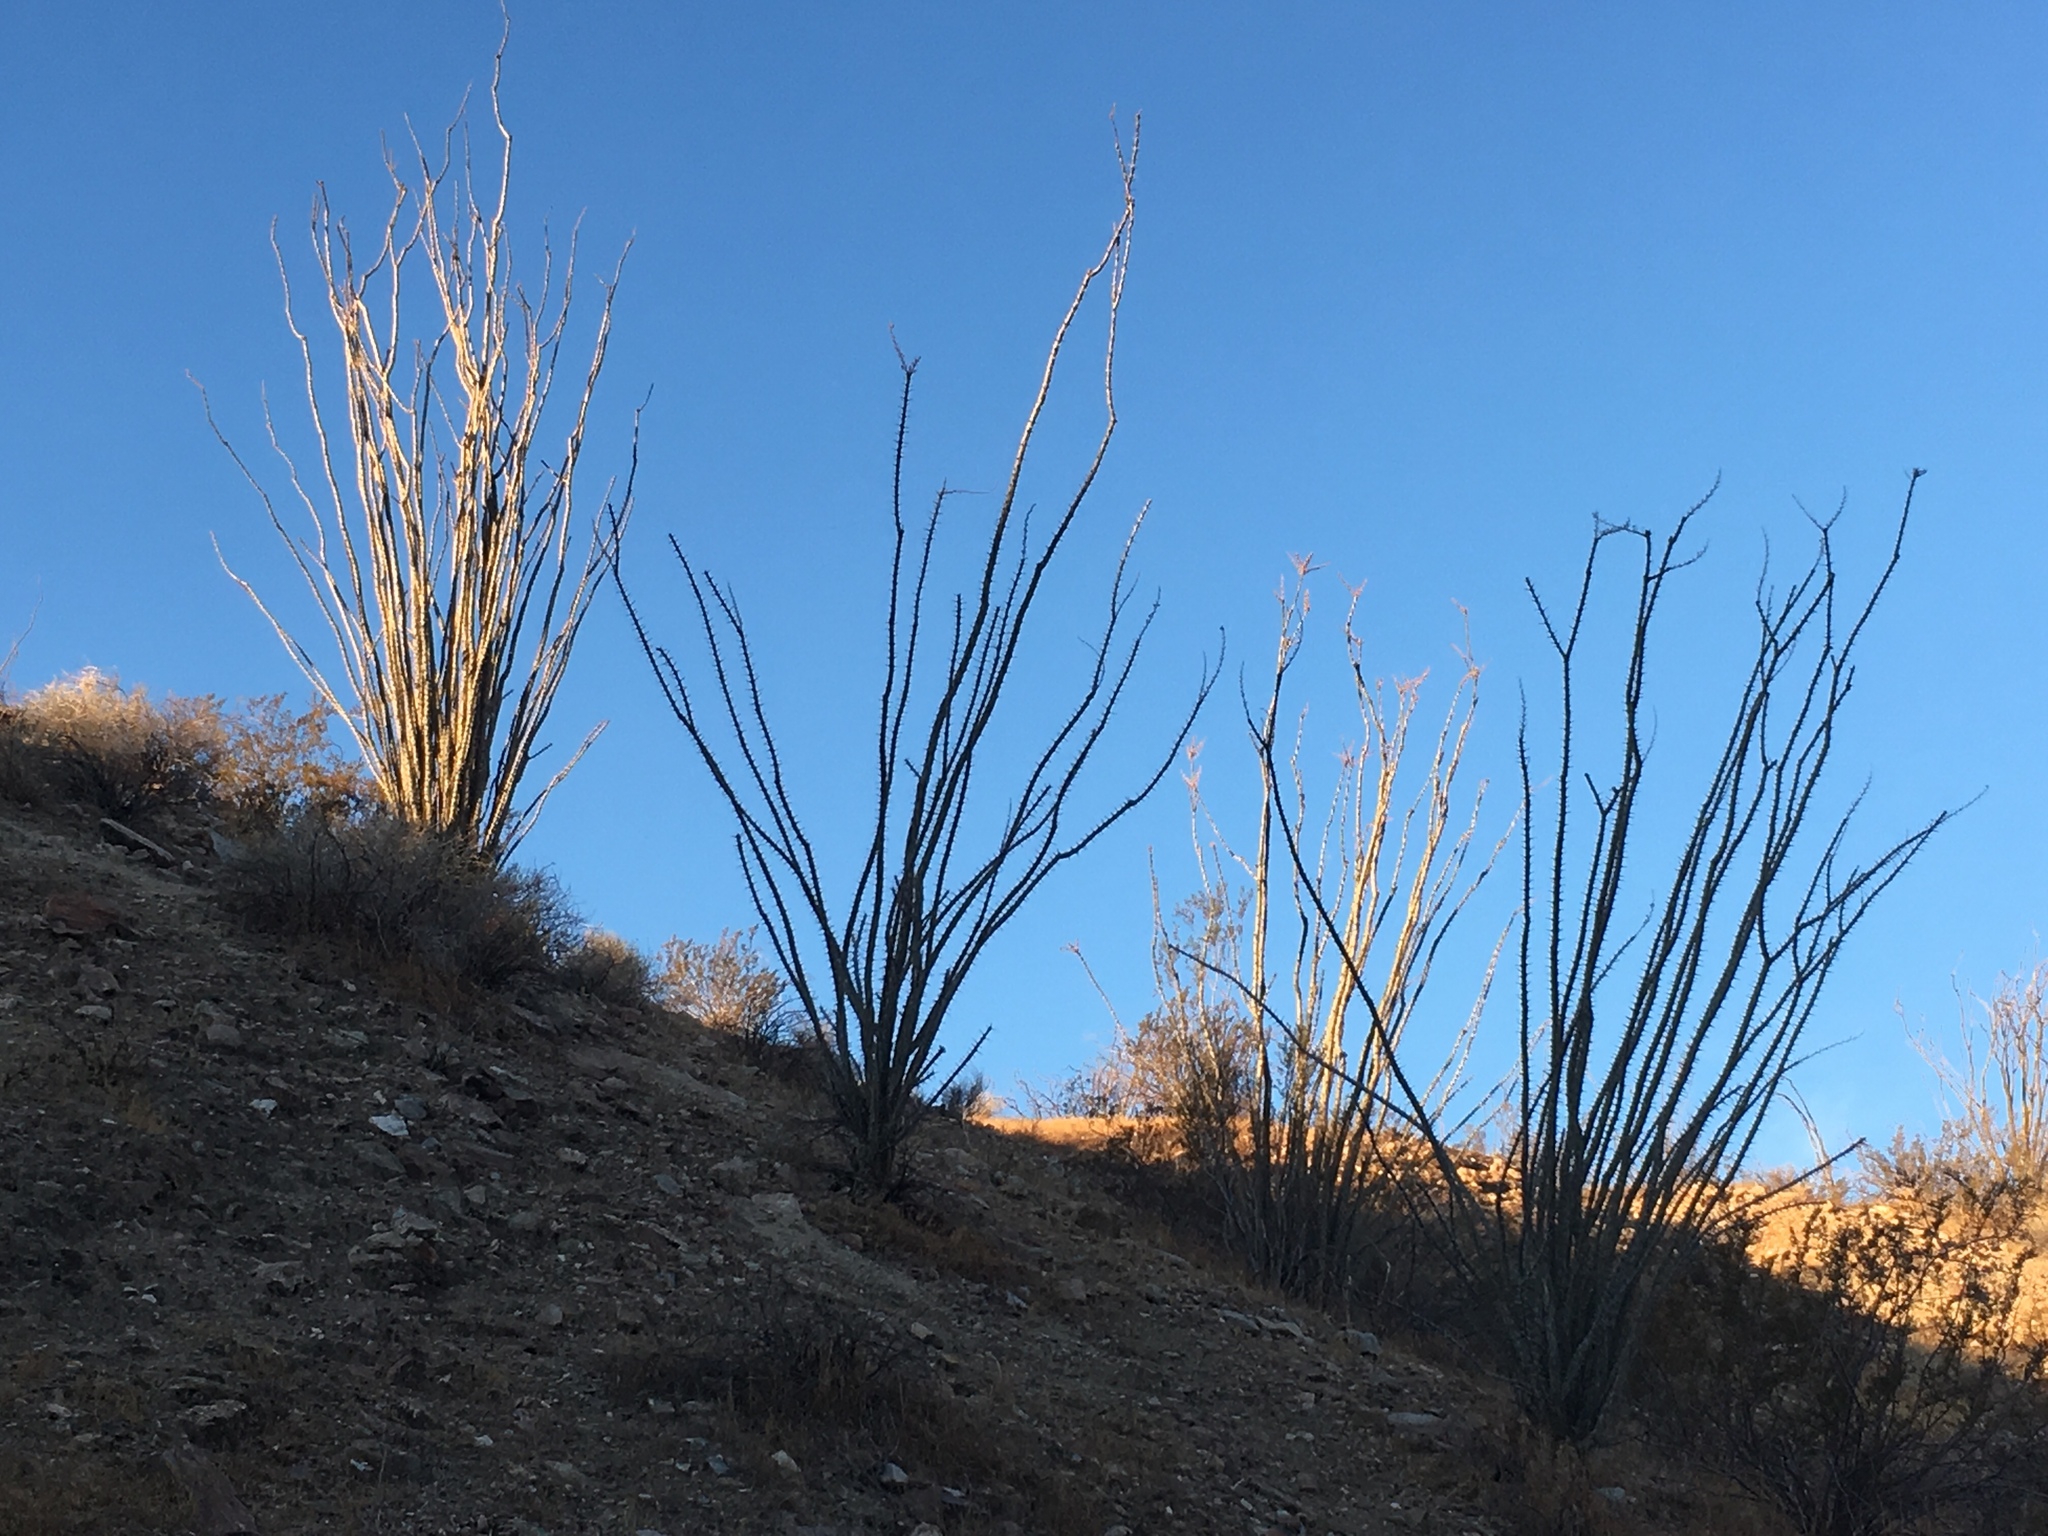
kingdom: Plantae
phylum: Tracheophyta
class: Magnoliopsida
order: Ericales
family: Fouquieriaceae
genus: Fouquieria
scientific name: Fouquieria splendens
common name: Vine-cactus
